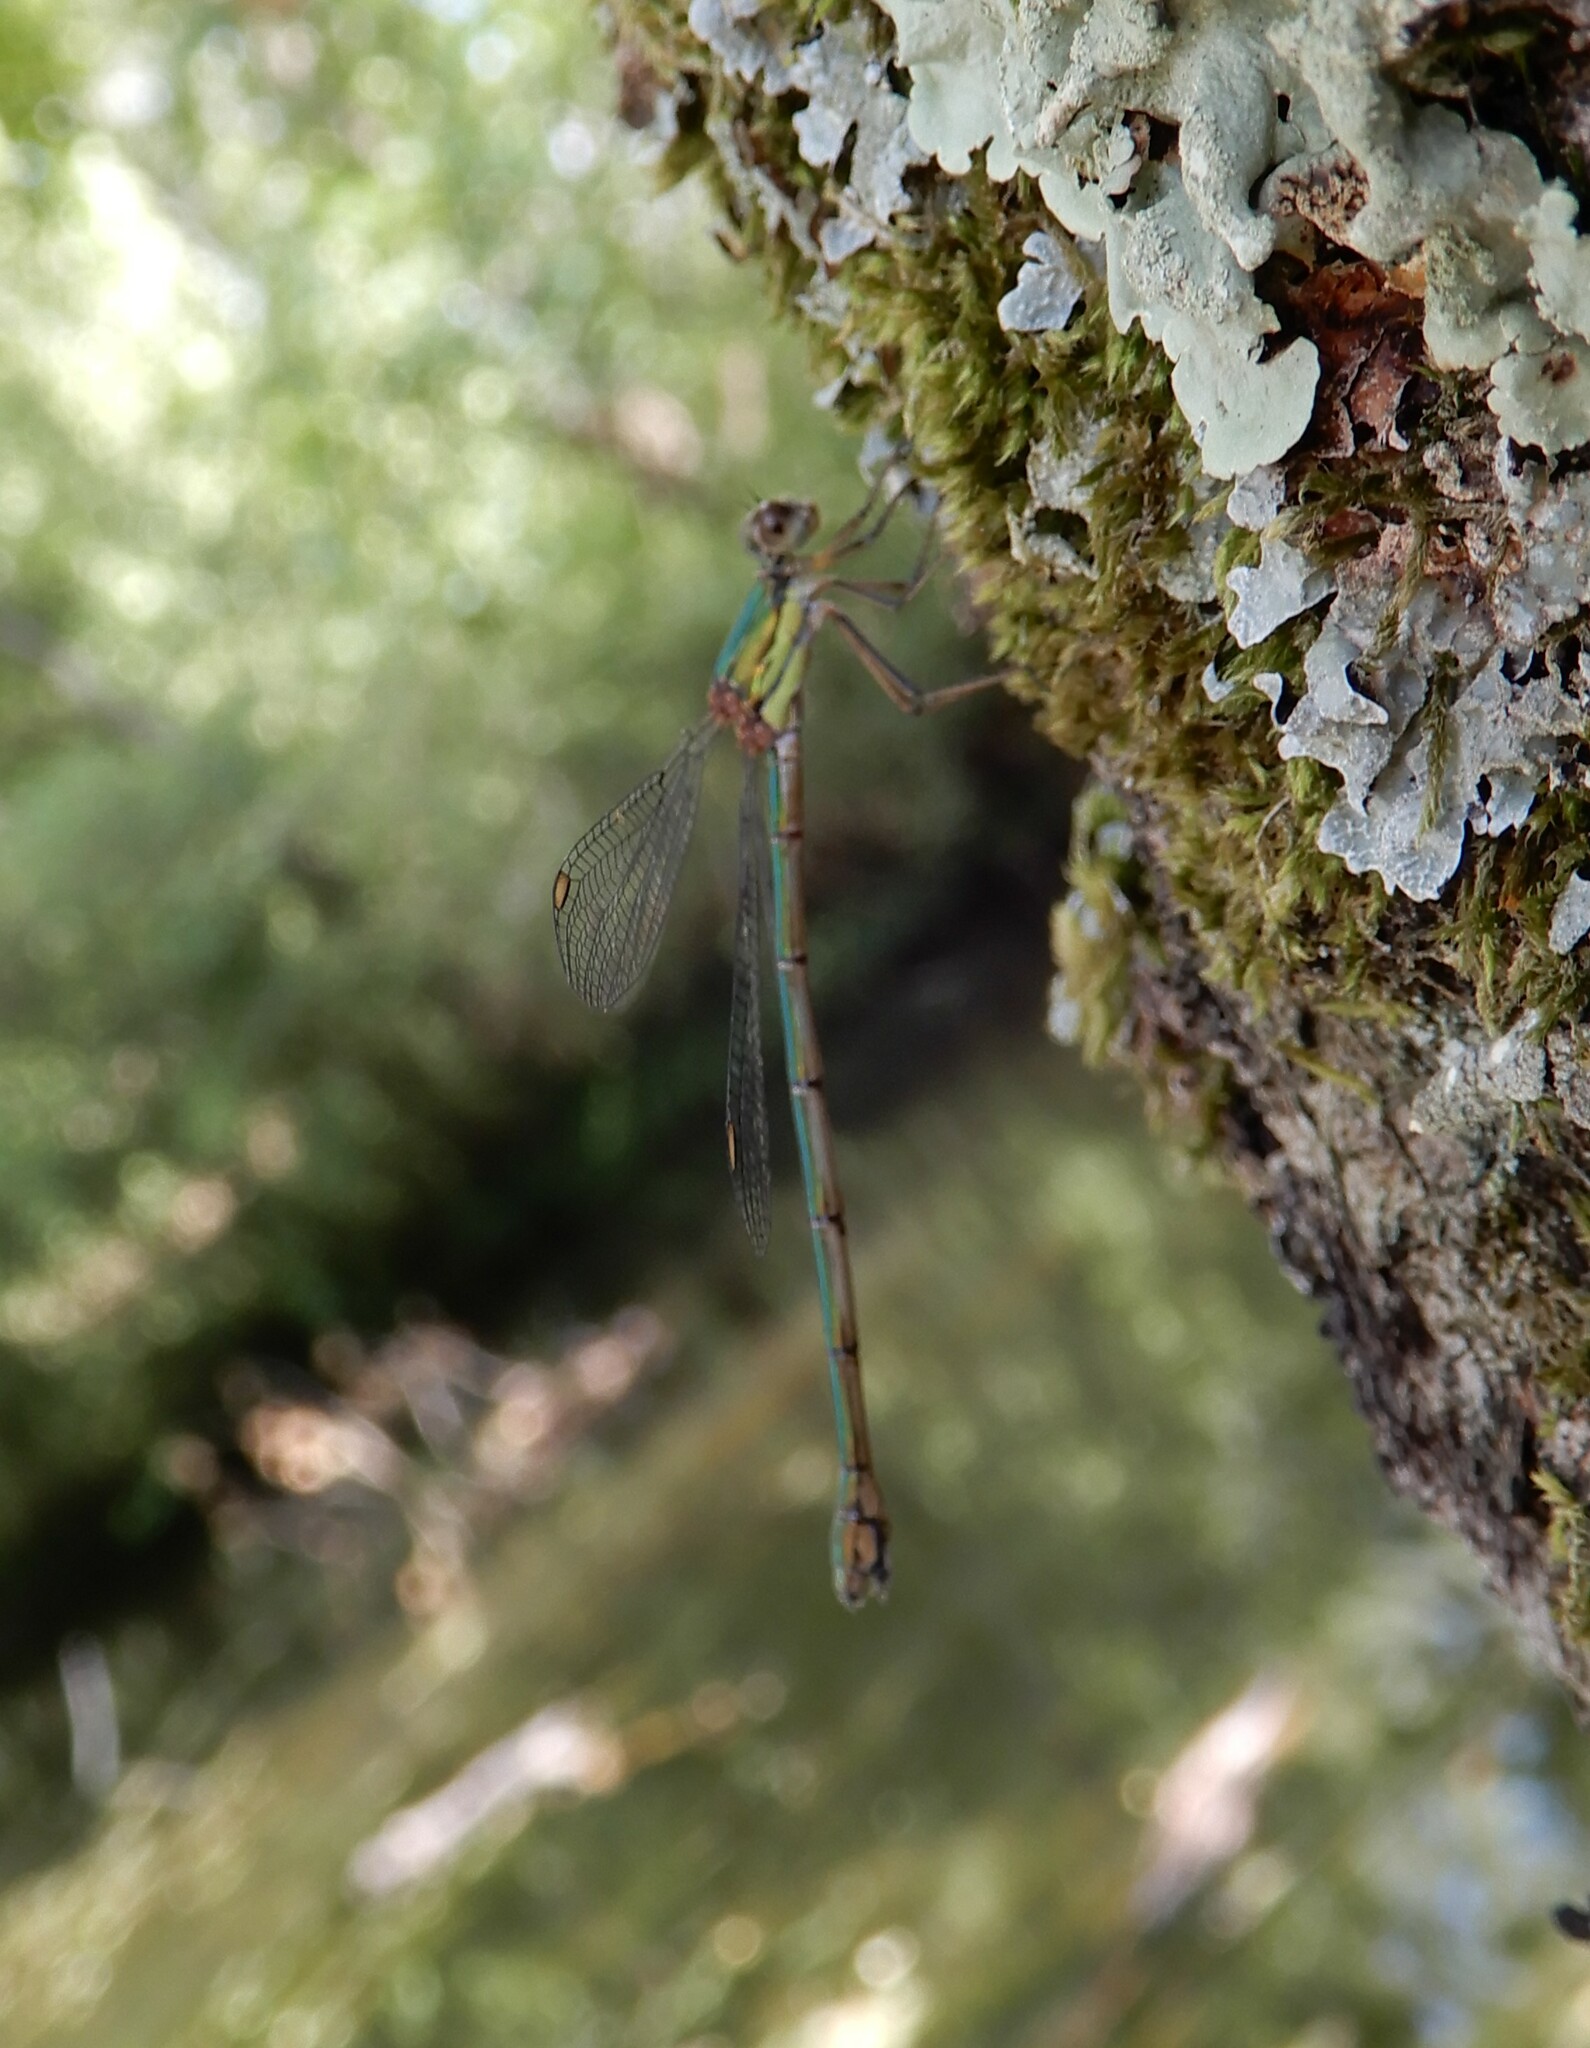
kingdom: Animalia
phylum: Arthropoda
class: Insecta
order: Odonata
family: Lestidae
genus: Chalcolestes
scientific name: Chalcolestes viridis
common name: Green emerald damselfly
